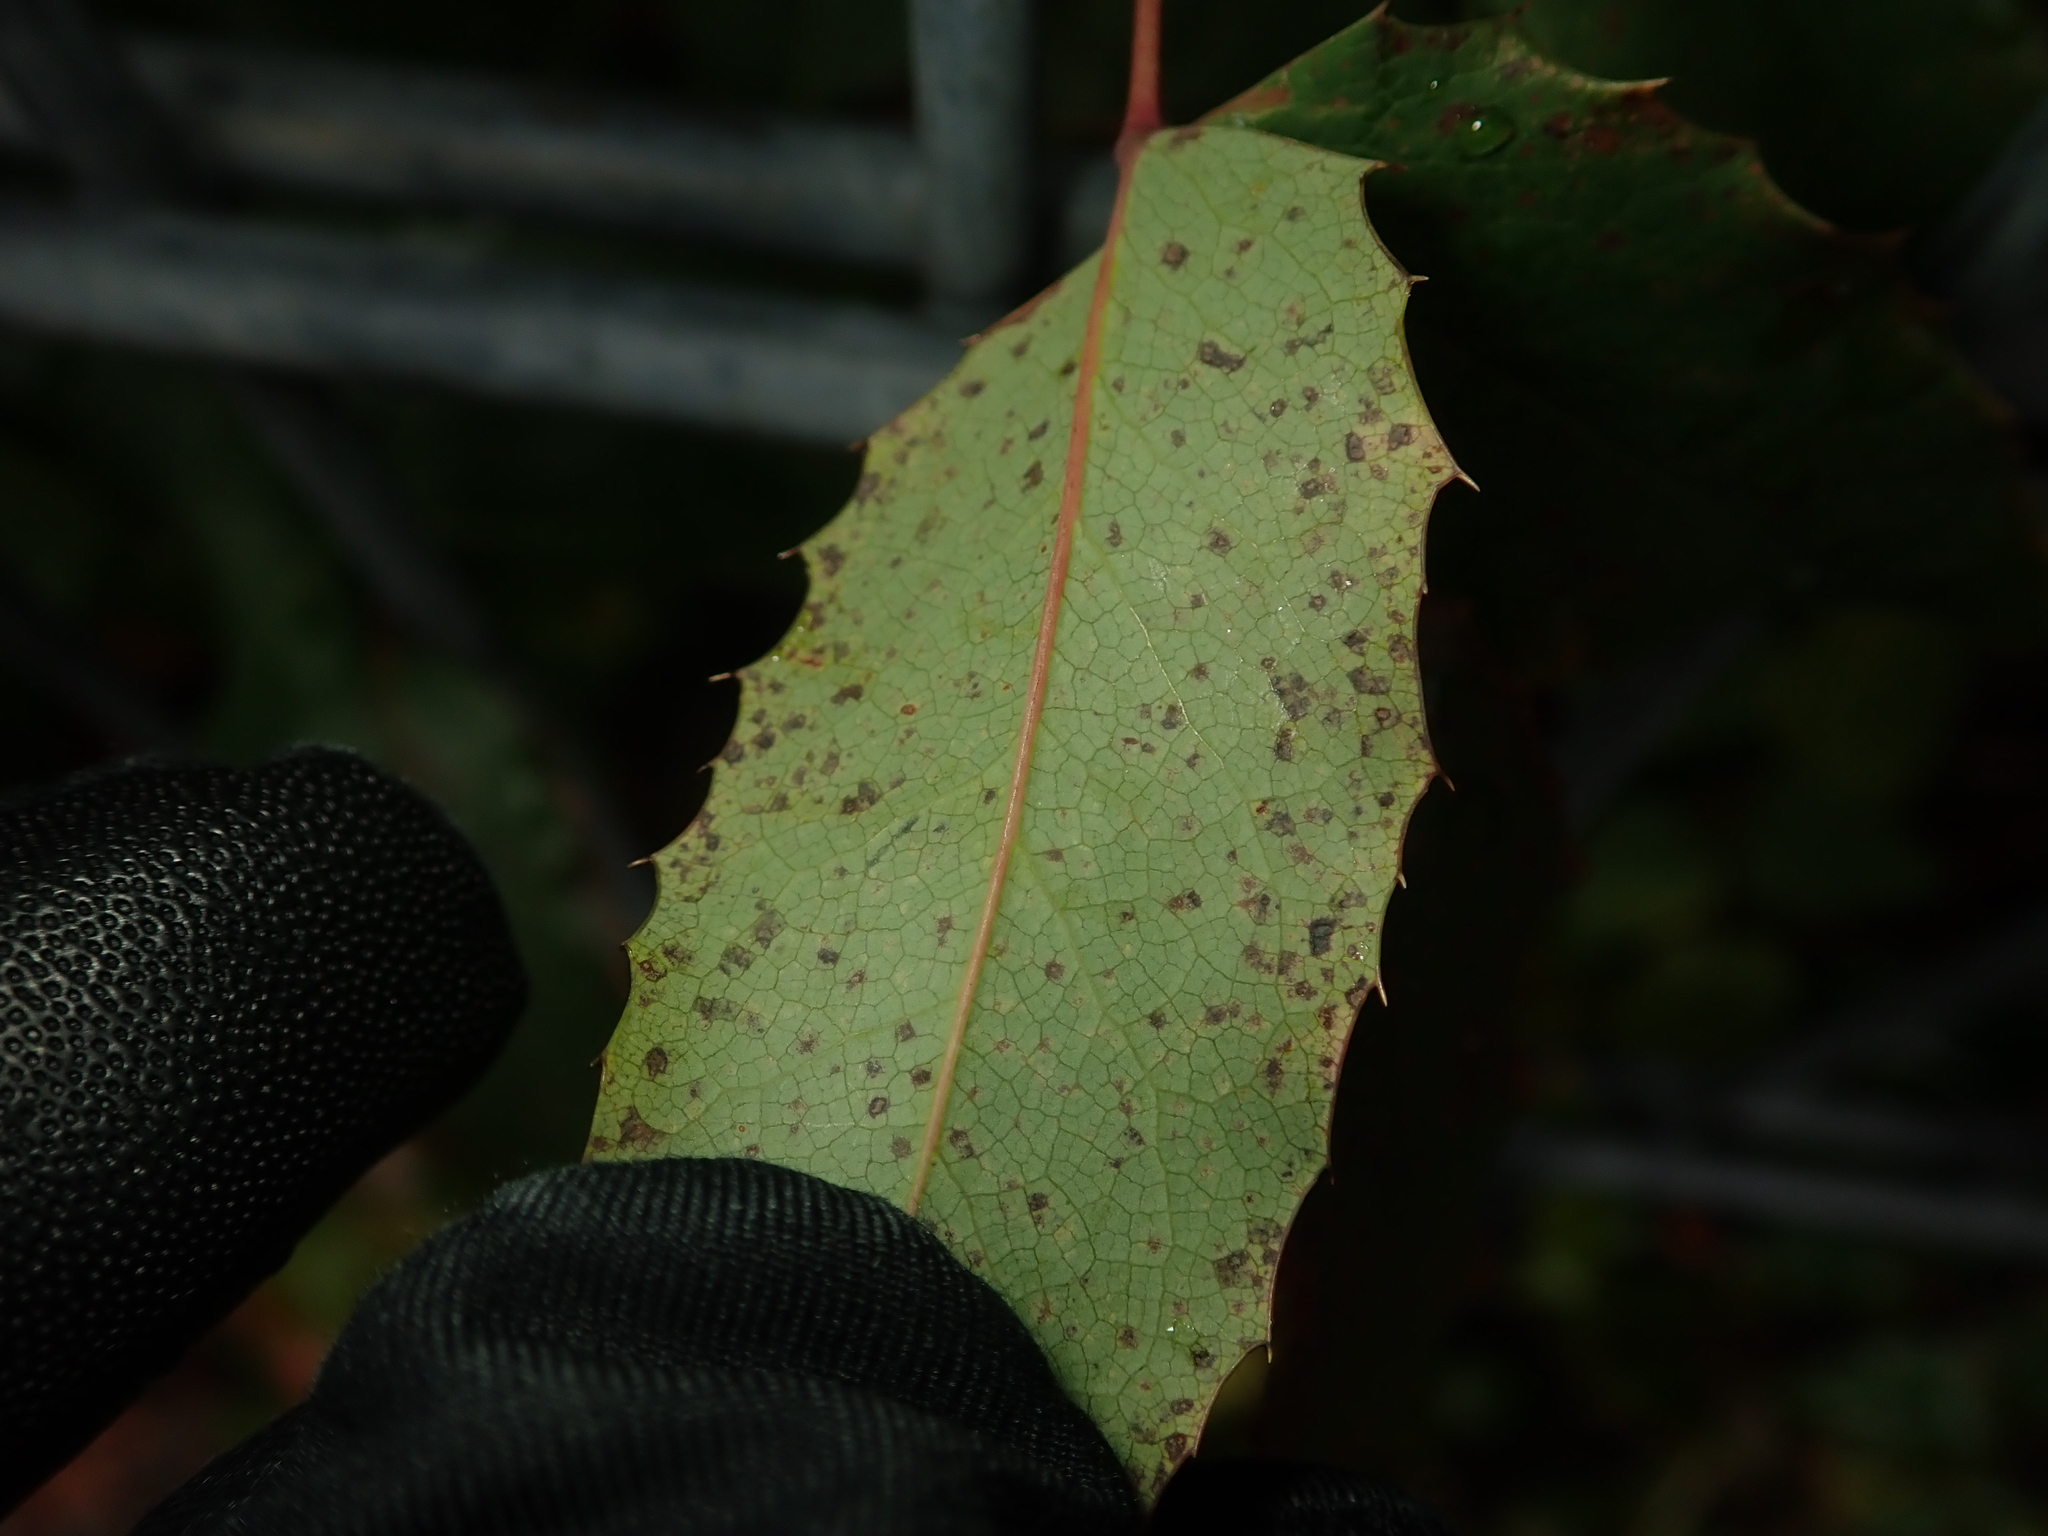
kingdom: Fungi
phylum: Basidiomycota
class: Pucciniomycetes
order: Pucciniales
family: Pucciniaceae
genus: Cumminsiella
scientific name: Cumminsiella mirabilissima
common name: Mahonia rust
